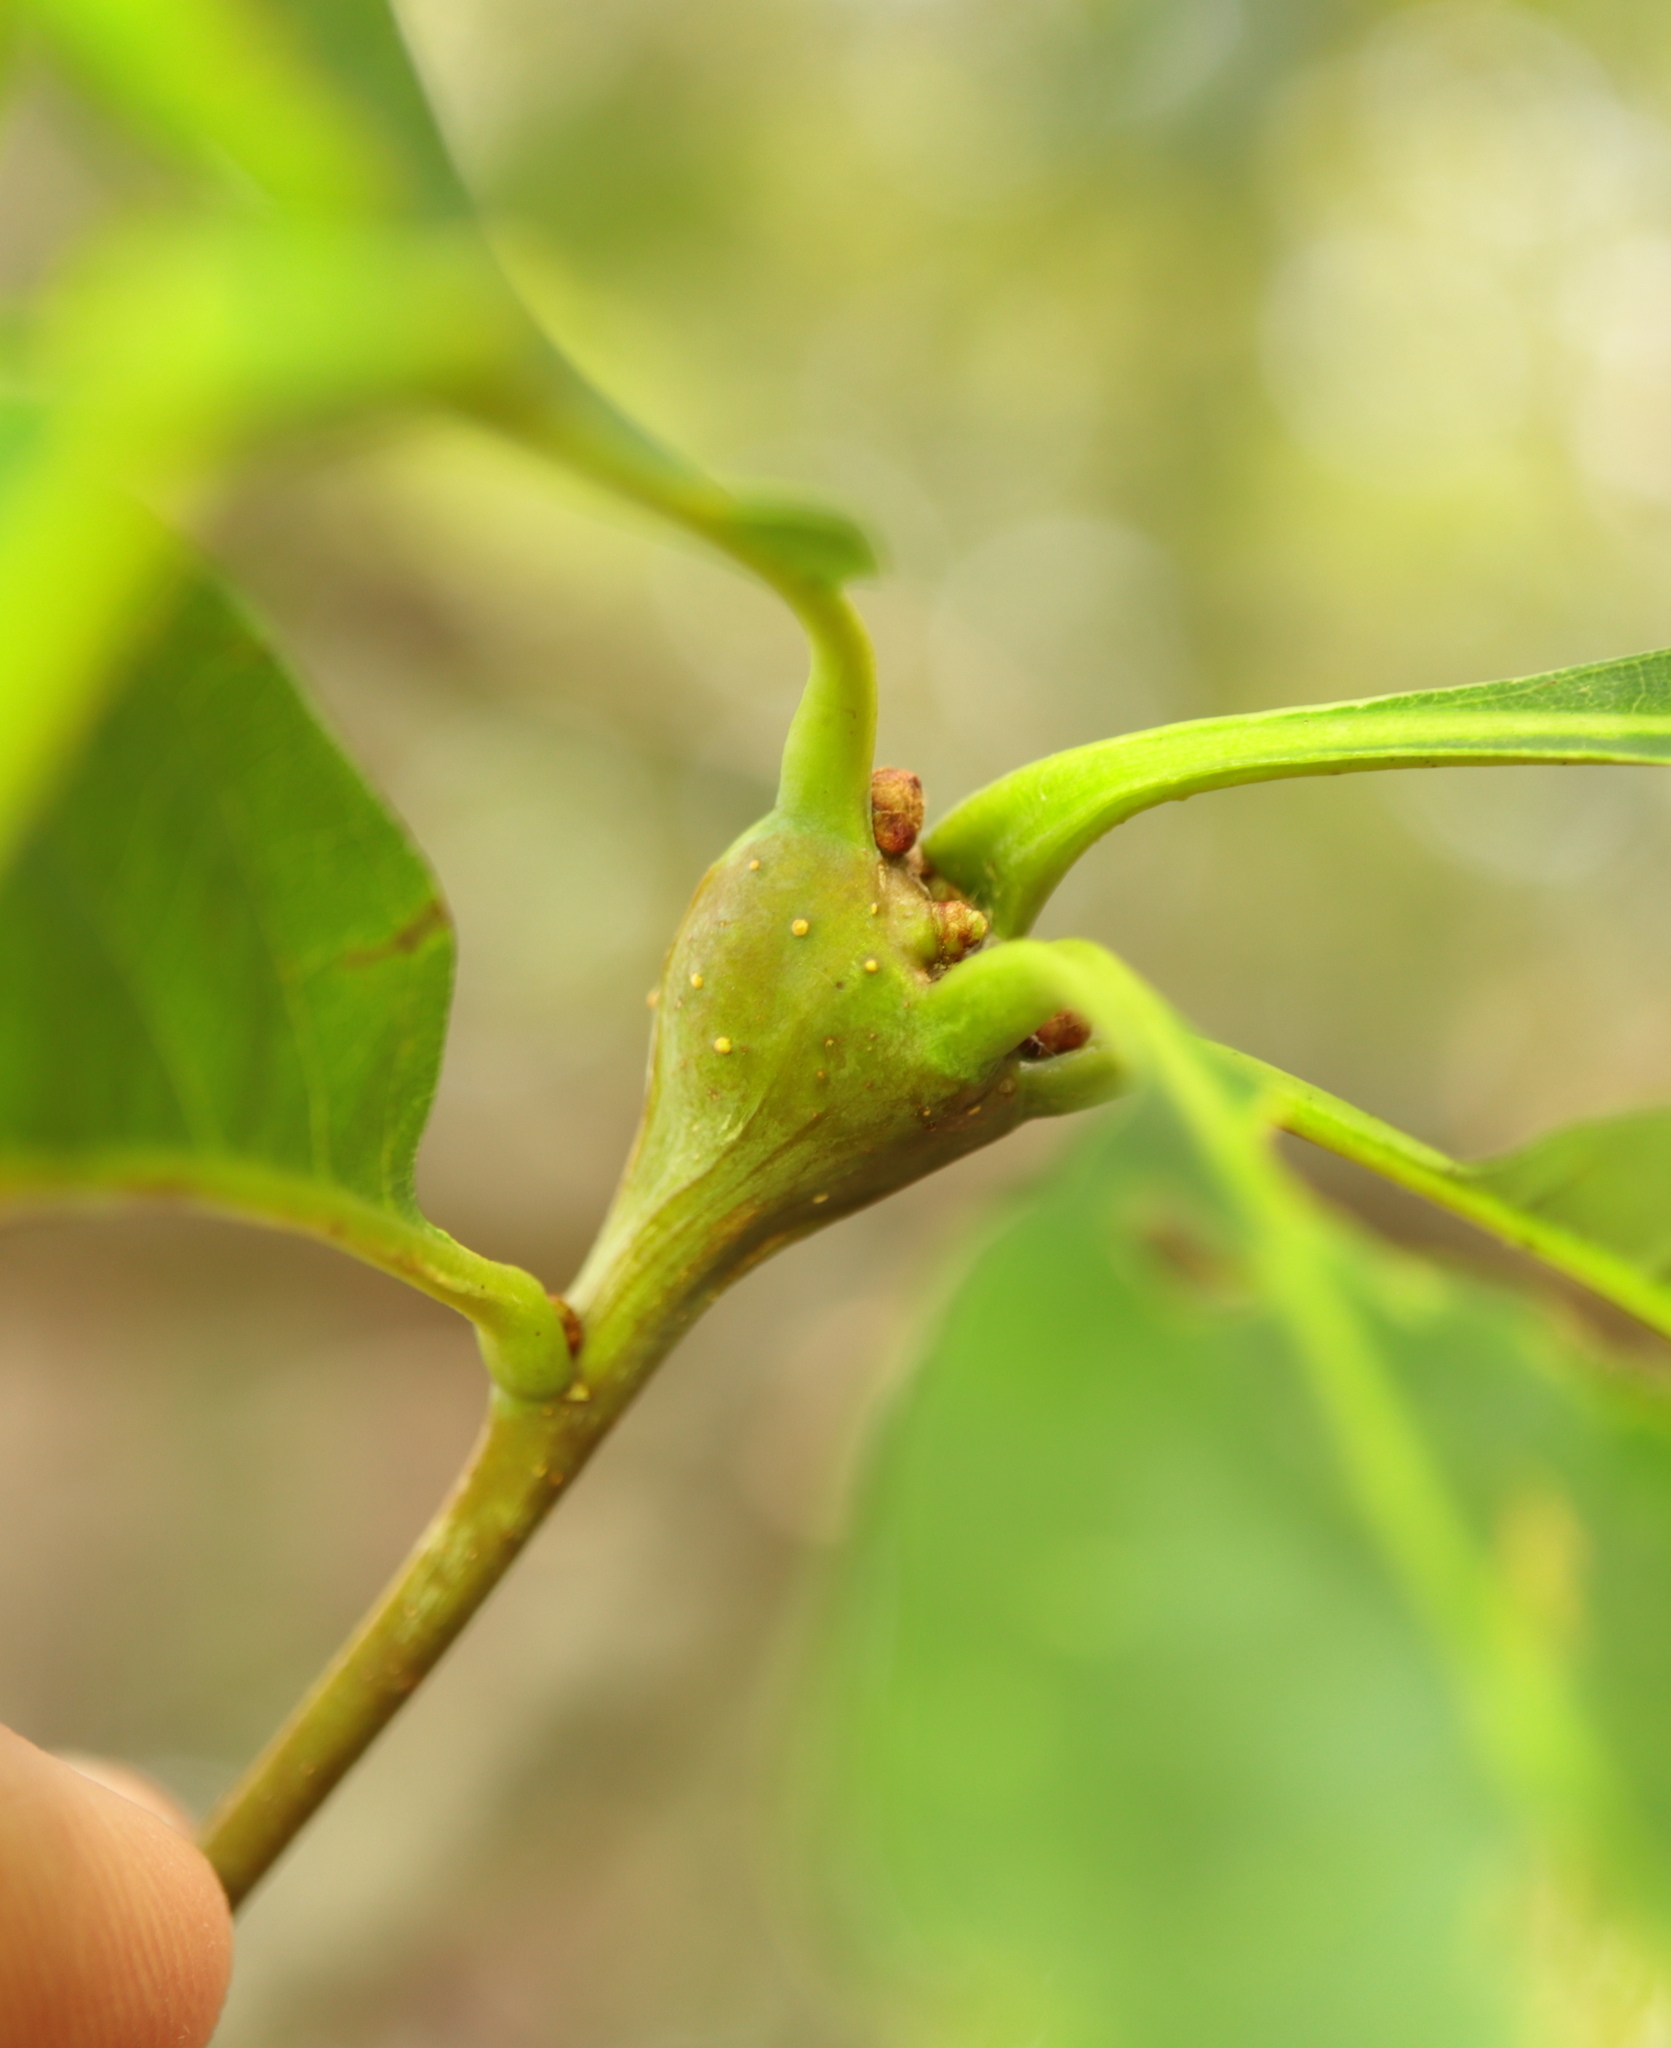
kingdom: Animalia
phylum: Arthropoda
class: Insecta
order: Hymenoptera
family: Cynipidae
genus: Callirhytis
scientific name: Callirhytis clavula
